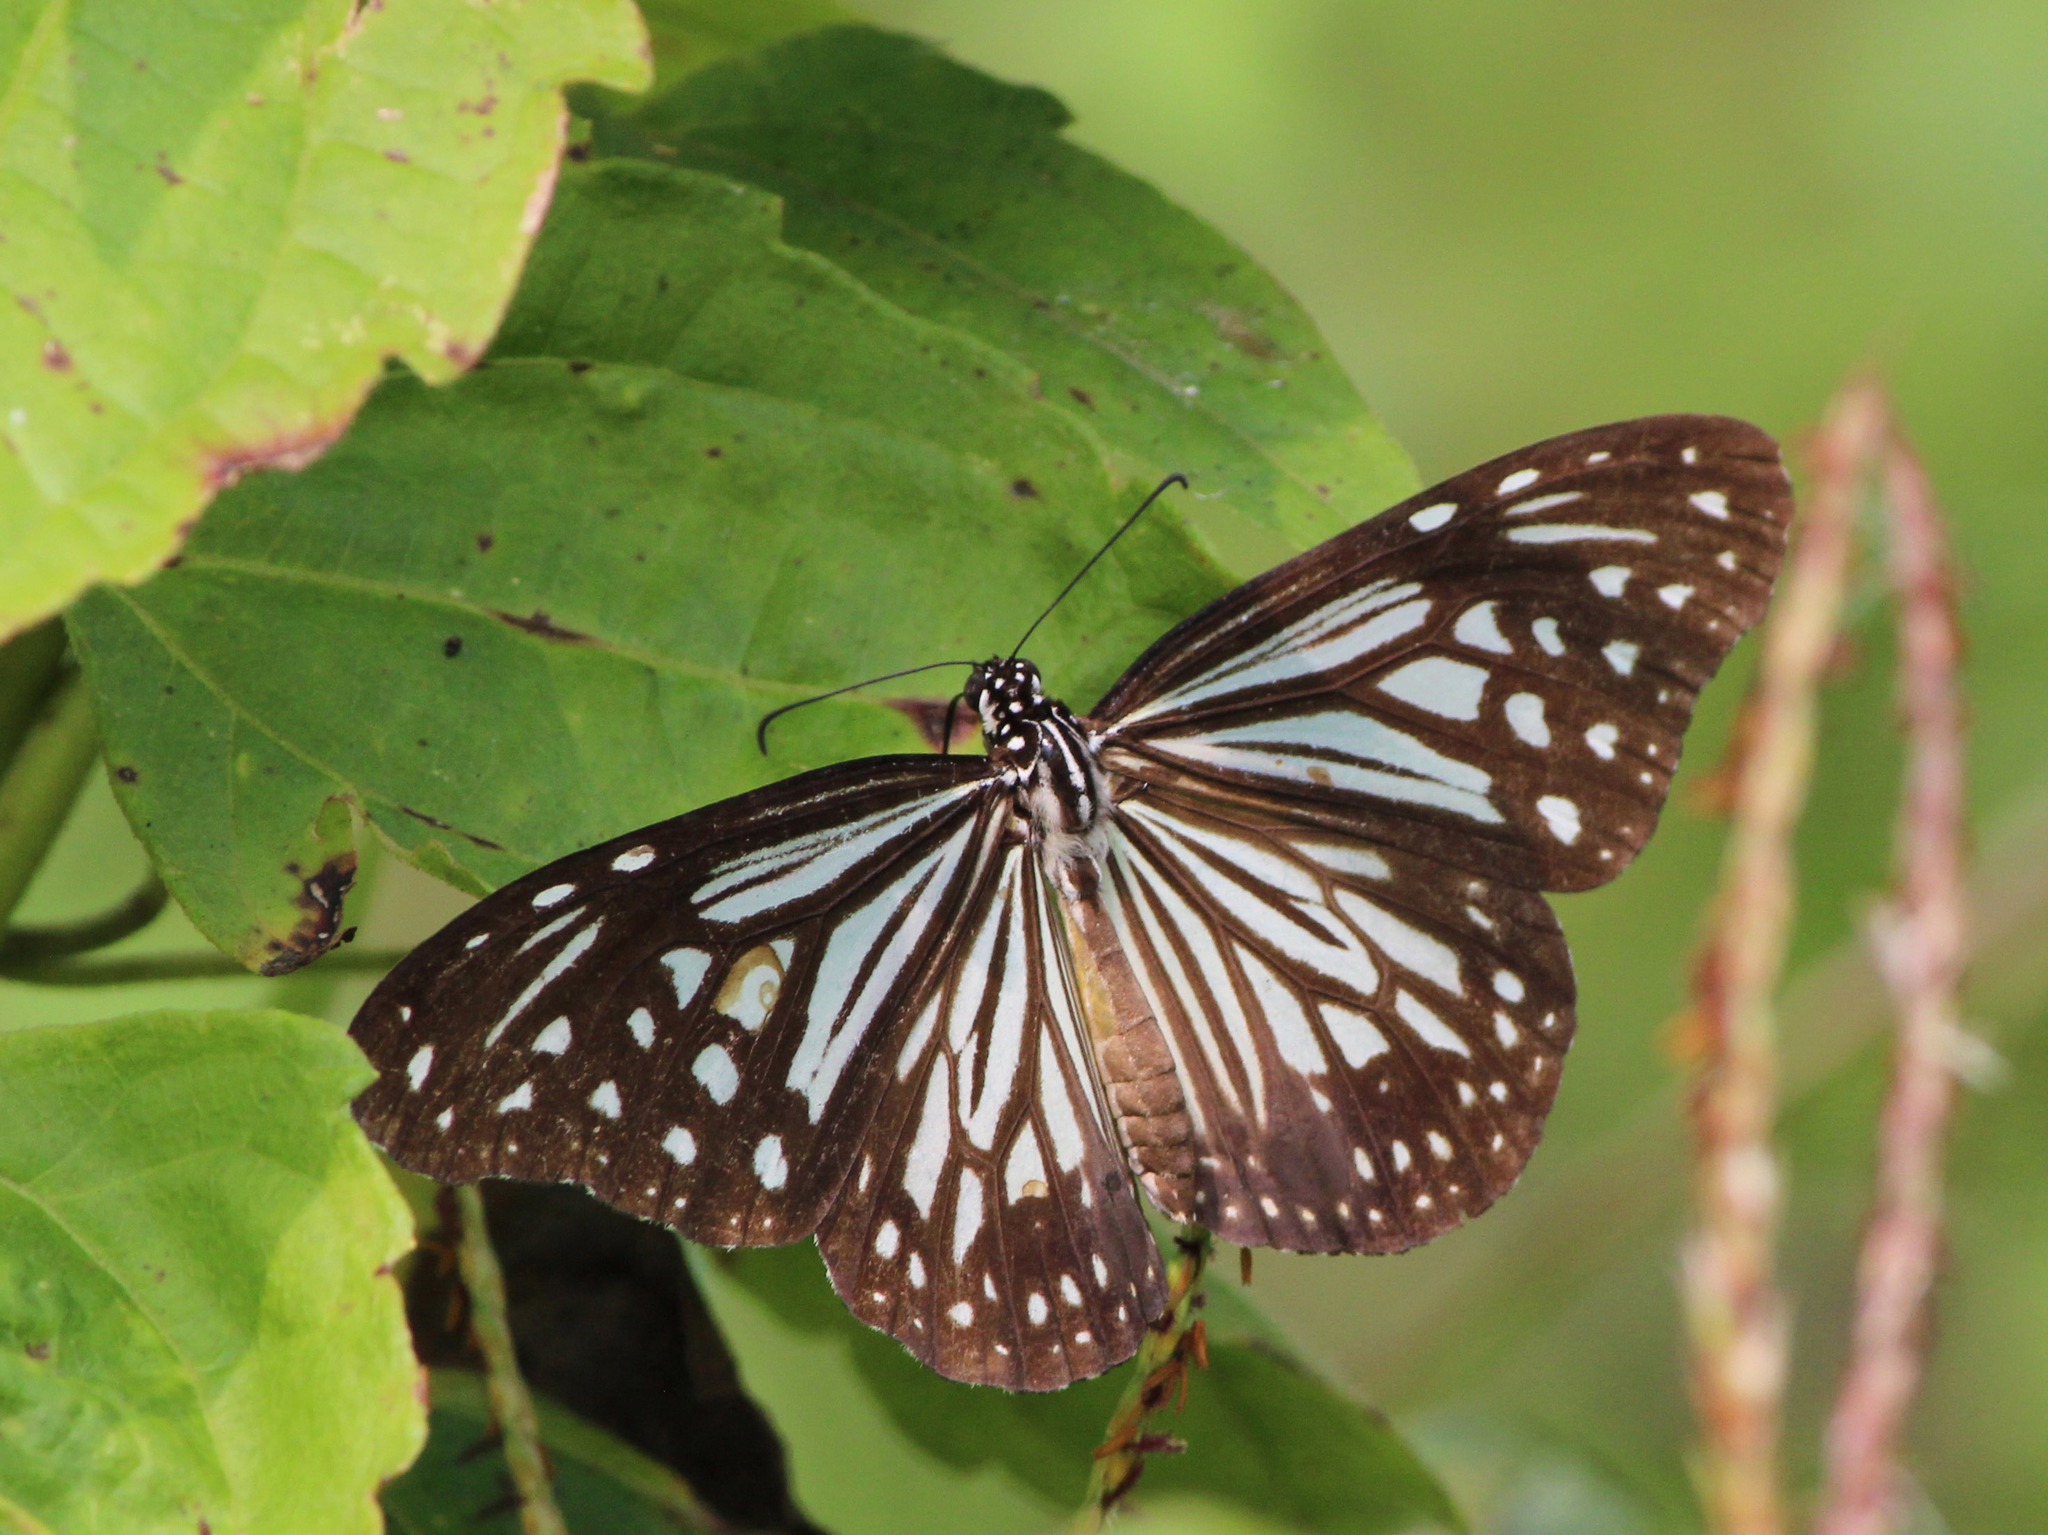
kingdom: Animalia
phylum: Arthropoda
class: Insecta
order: Lepidoptera
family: Nymphalidae
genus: Parantica
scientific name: Parantica aglea
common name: Glassy tiger
